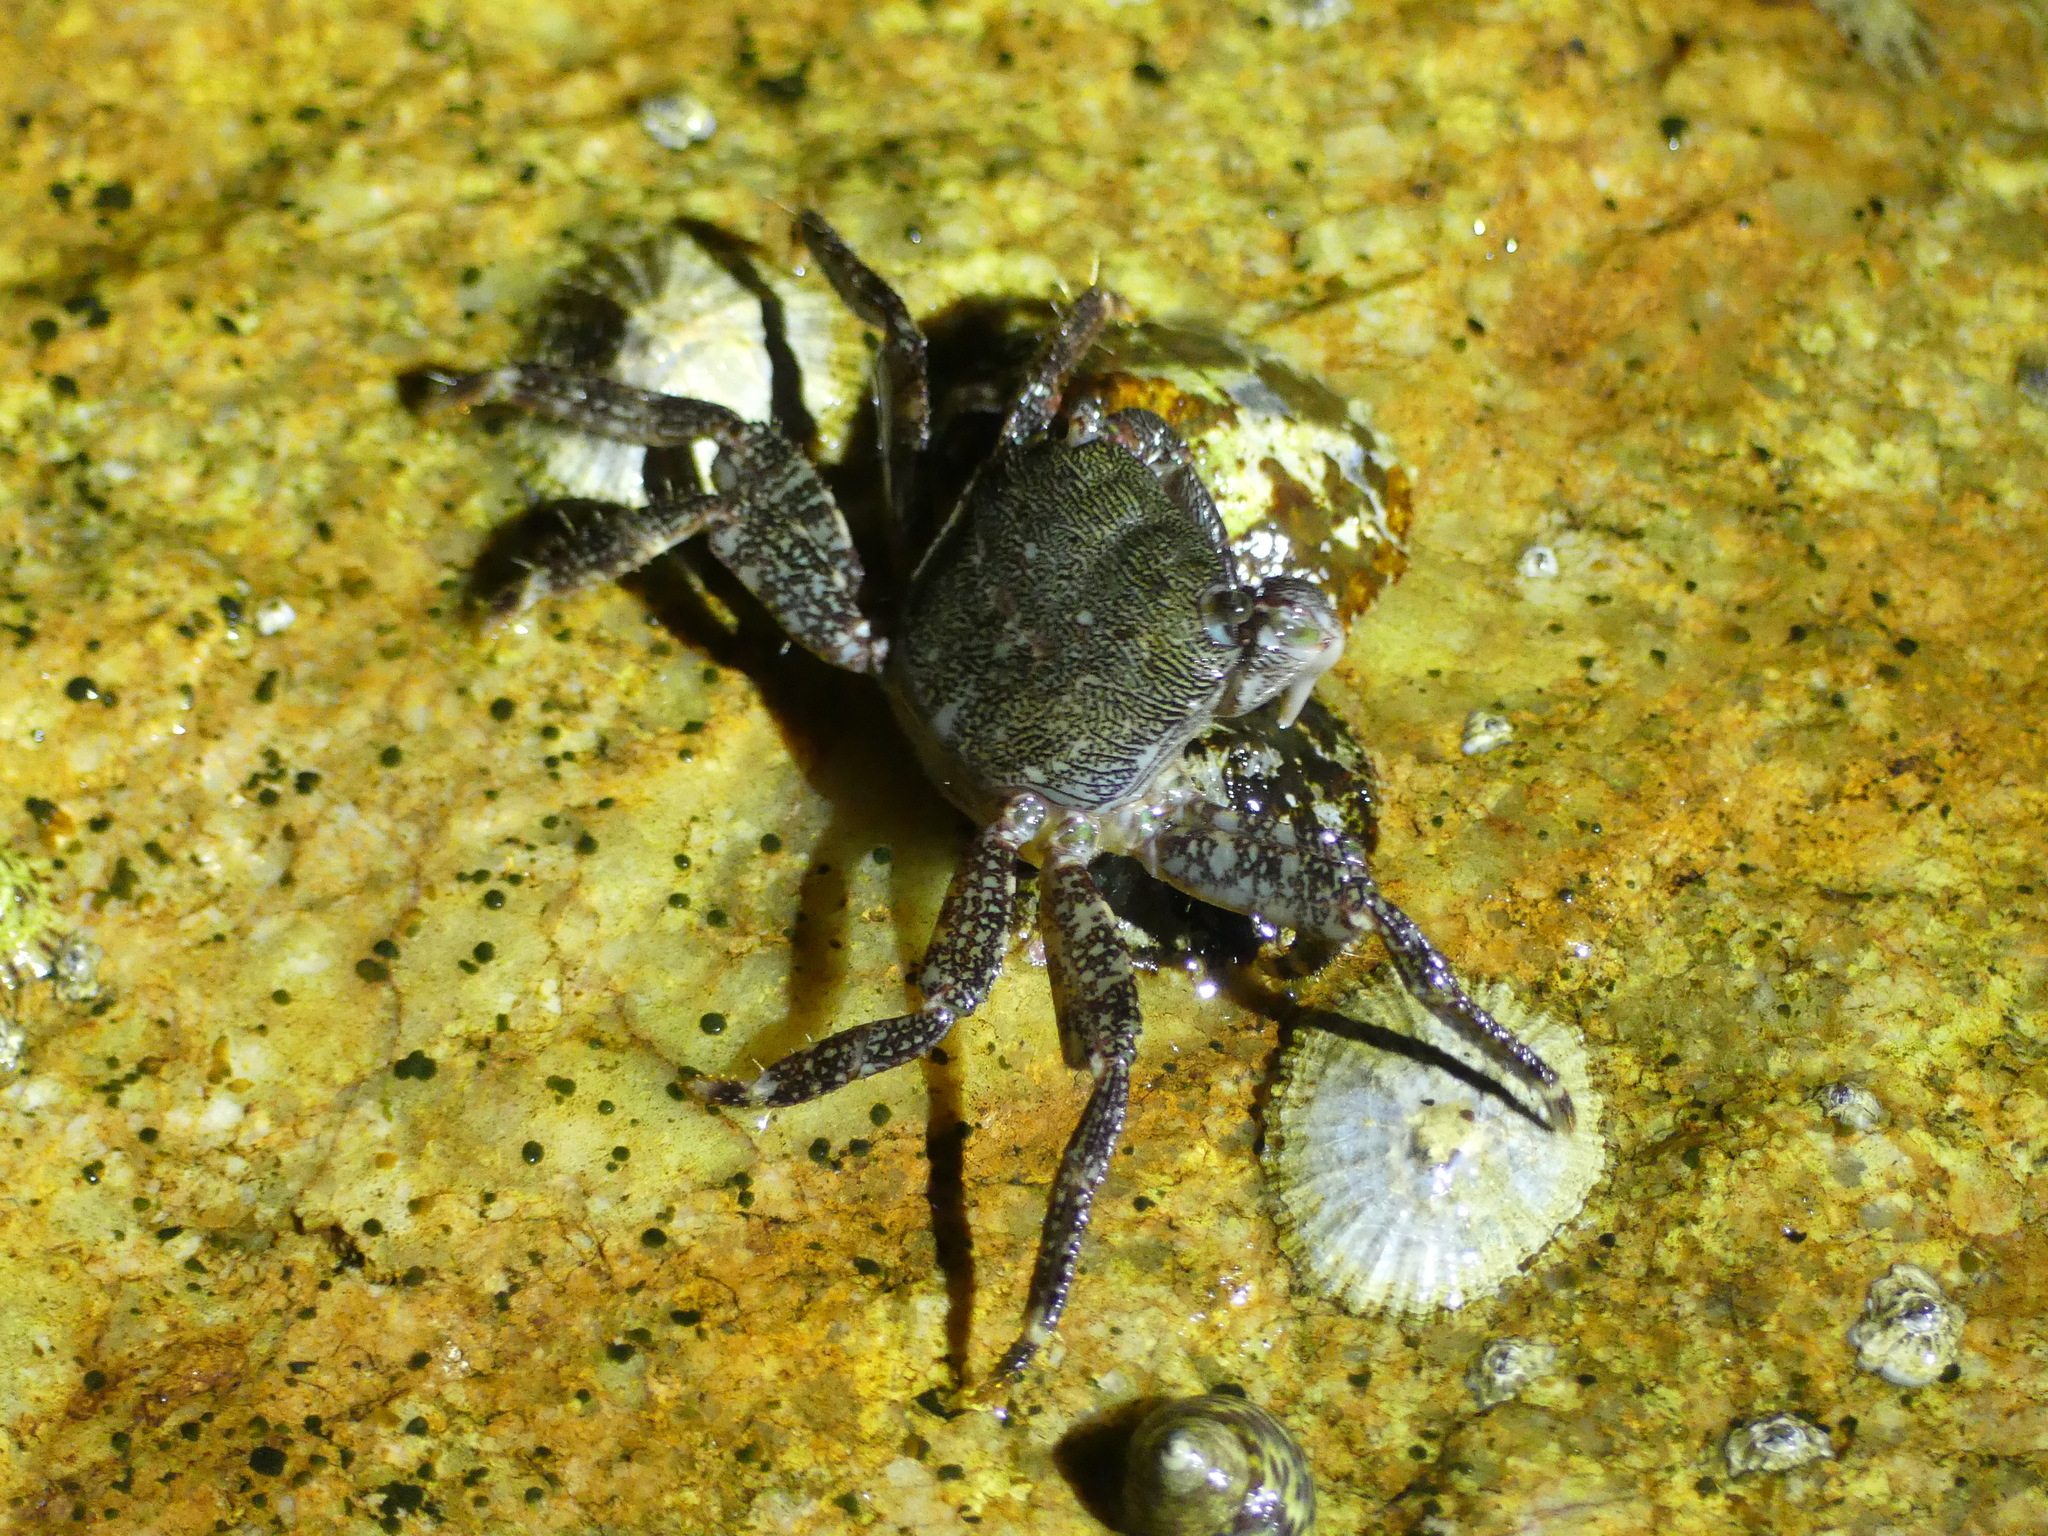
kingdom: Animalia
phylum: Arthropoda
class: Malacostraca
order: Decapoda
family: Grapsidae
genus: Pachygrapsus
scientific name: Pachygrapsus marmoratus
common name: Marbled rock crab
